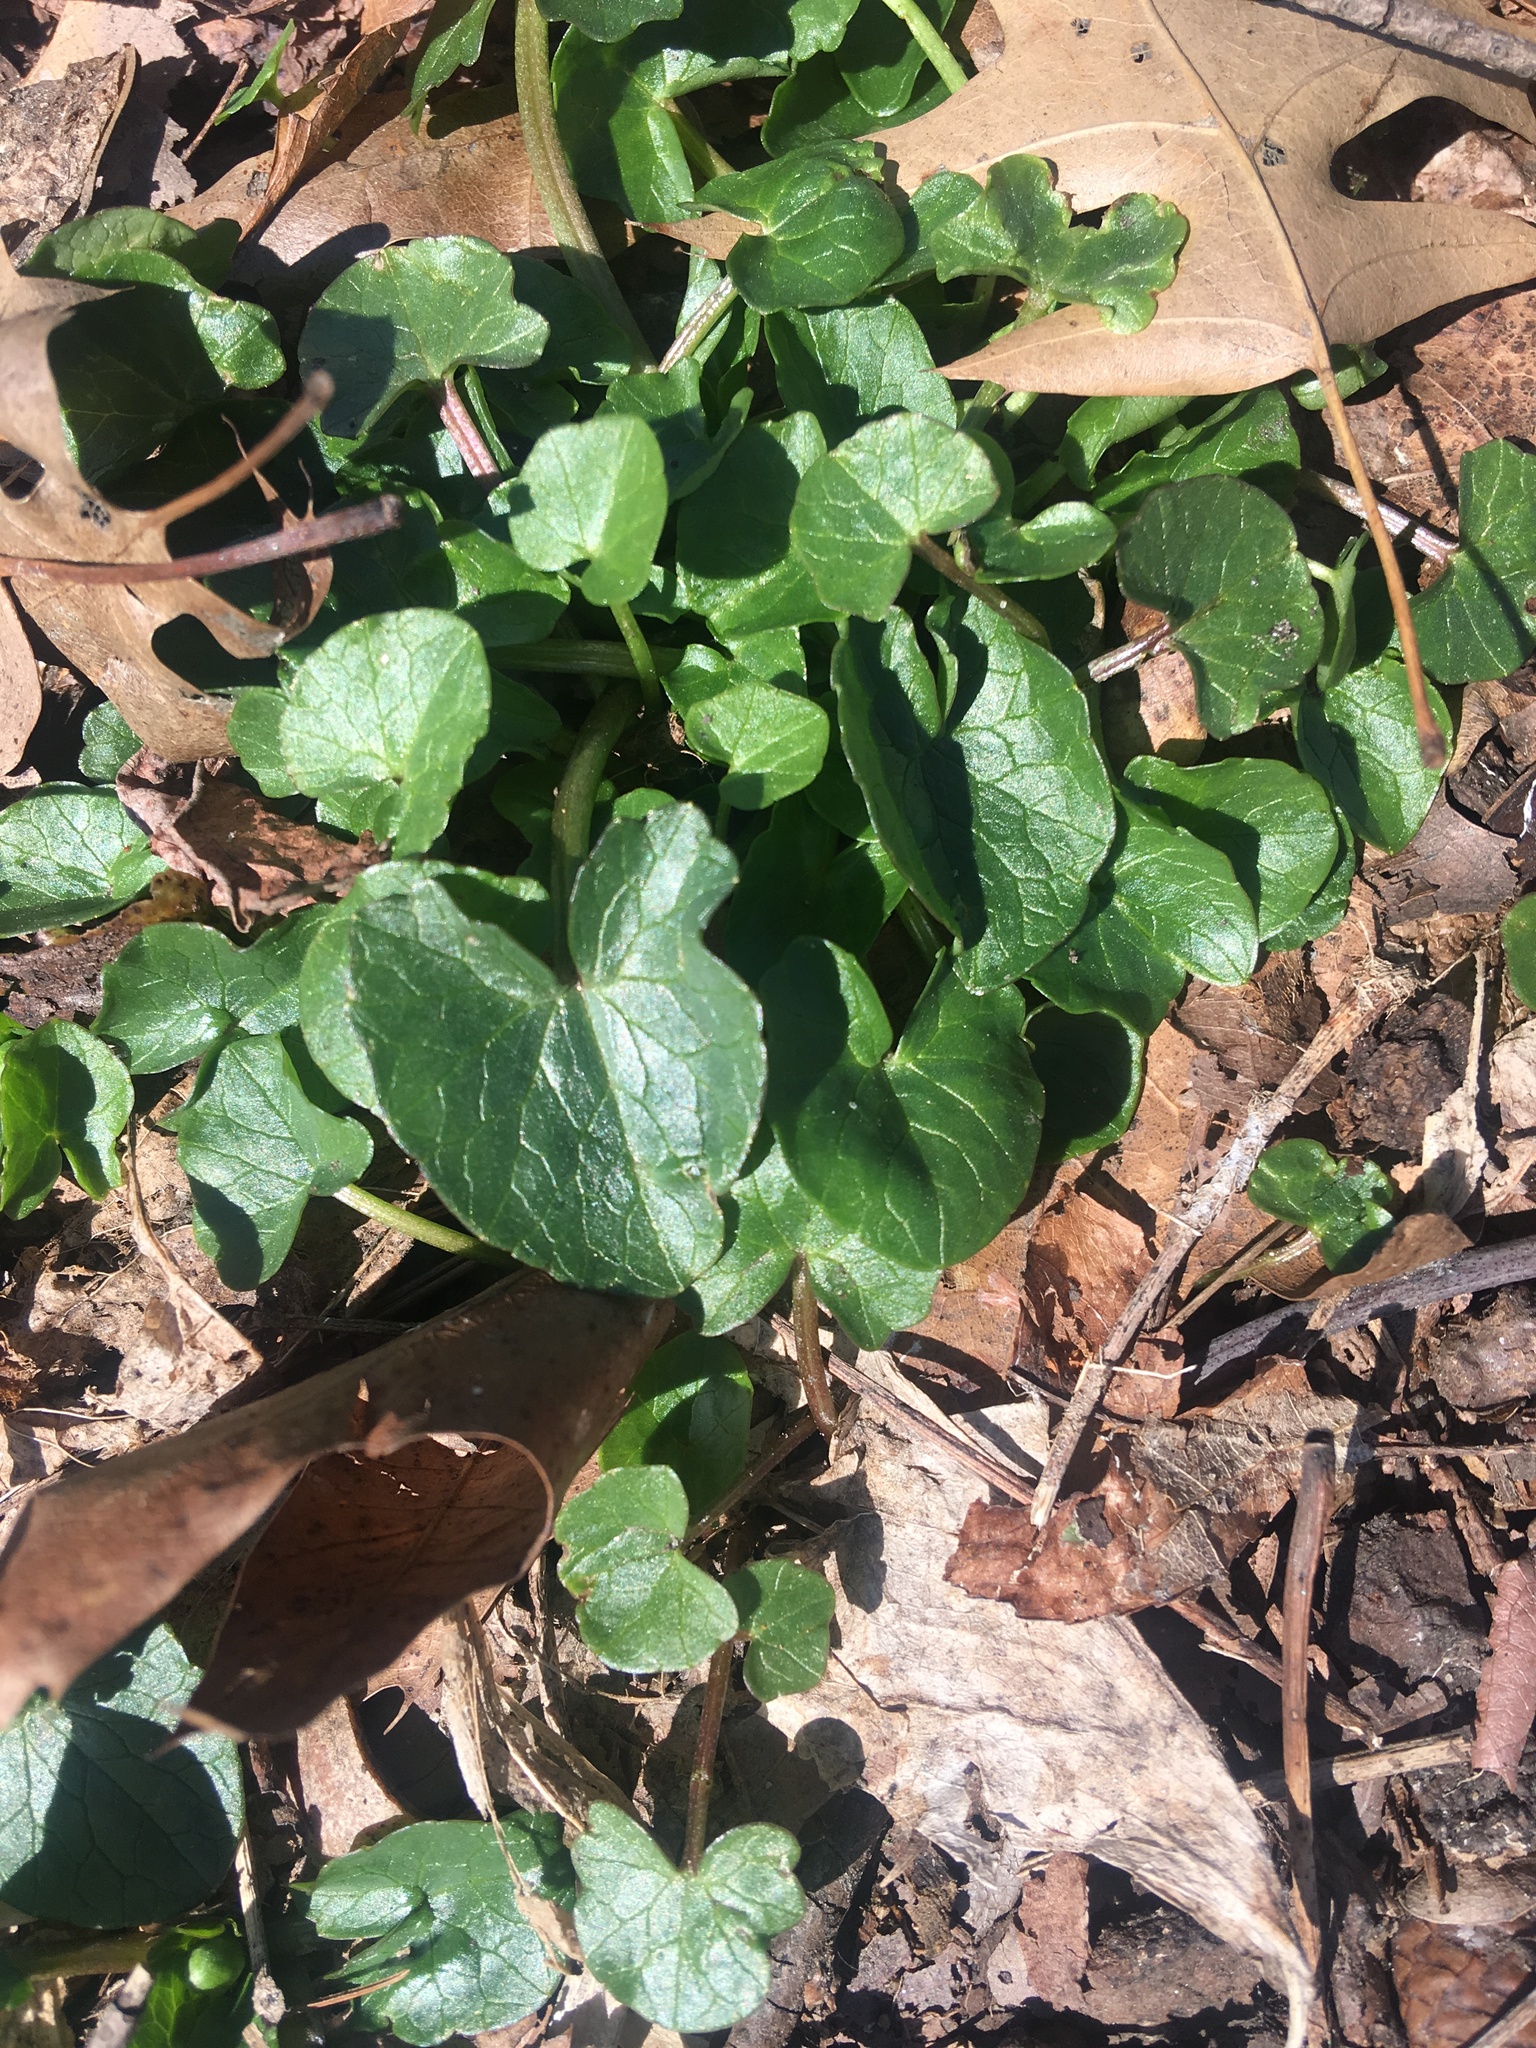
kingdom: Plantae
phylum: Tracheophyta
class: Magnoliopsida
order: Ranunculales
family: Ranunculaceae
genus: Ficaria
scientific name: Ficaria verna
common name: Lesser celandine
